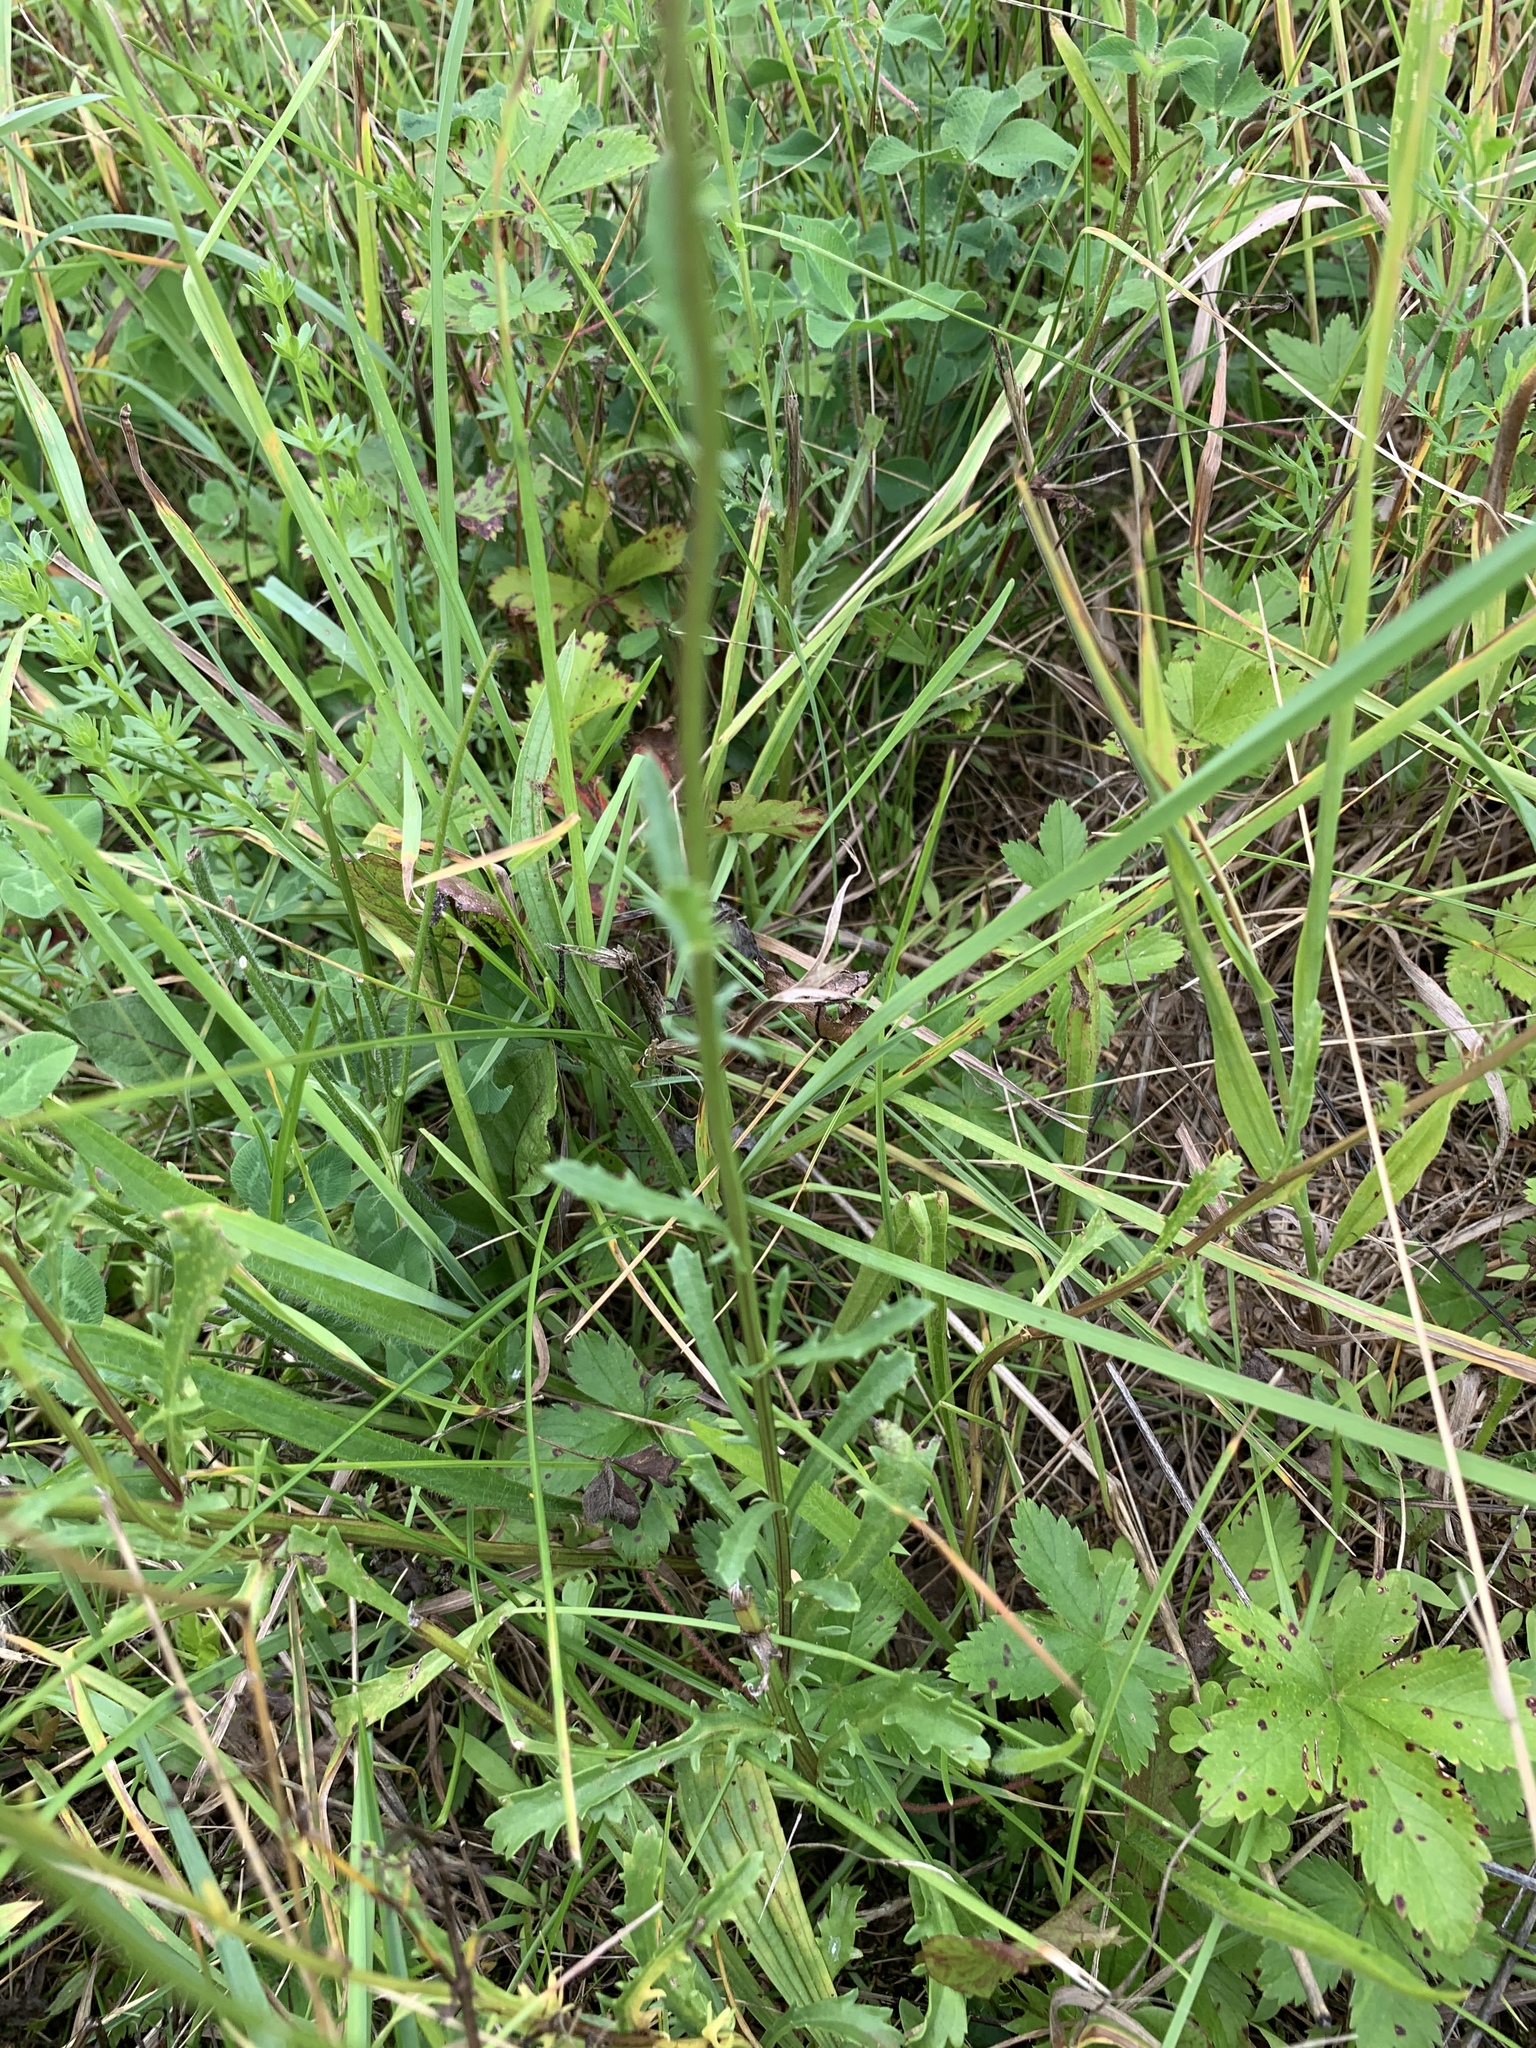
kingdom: Plantae
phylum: Tracheophyta
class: Magnoliopsida
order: Asterales
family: Asteraceae
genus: Leucanthemum
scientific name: Leucanthemum vulgare
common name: Oxeye daisy
